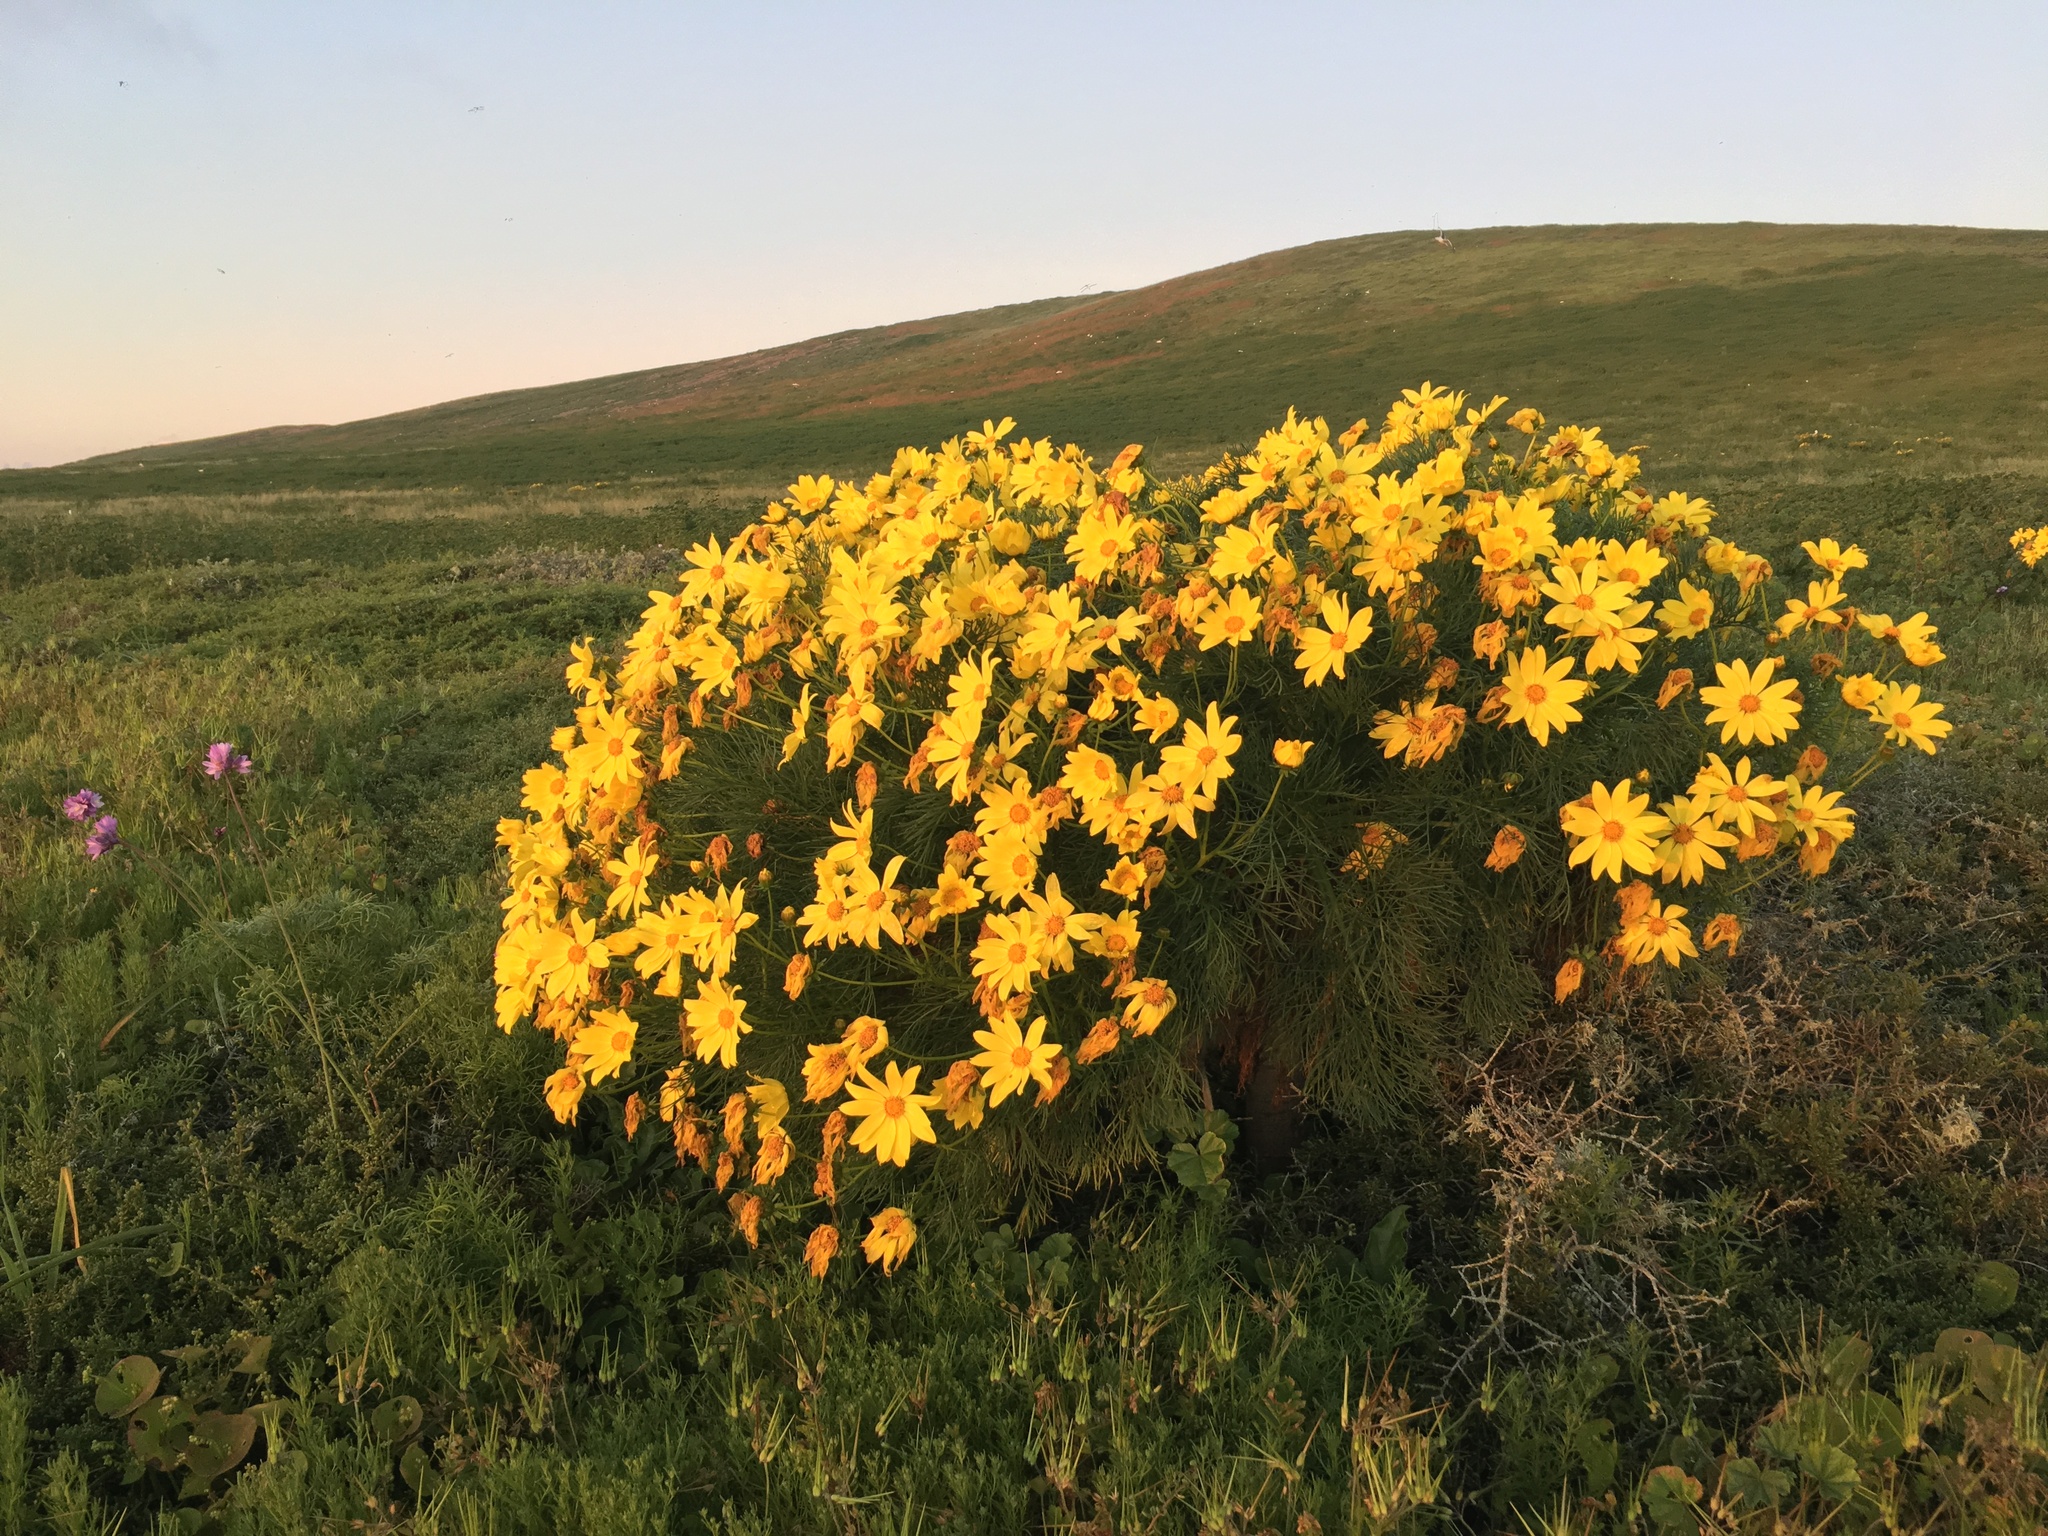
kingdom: Plantae
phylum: Tracheophyta
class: Magnoliopsida
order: Asterales
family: Asteraceae
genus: Coreopsis
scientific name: Coreopsis gigantea
